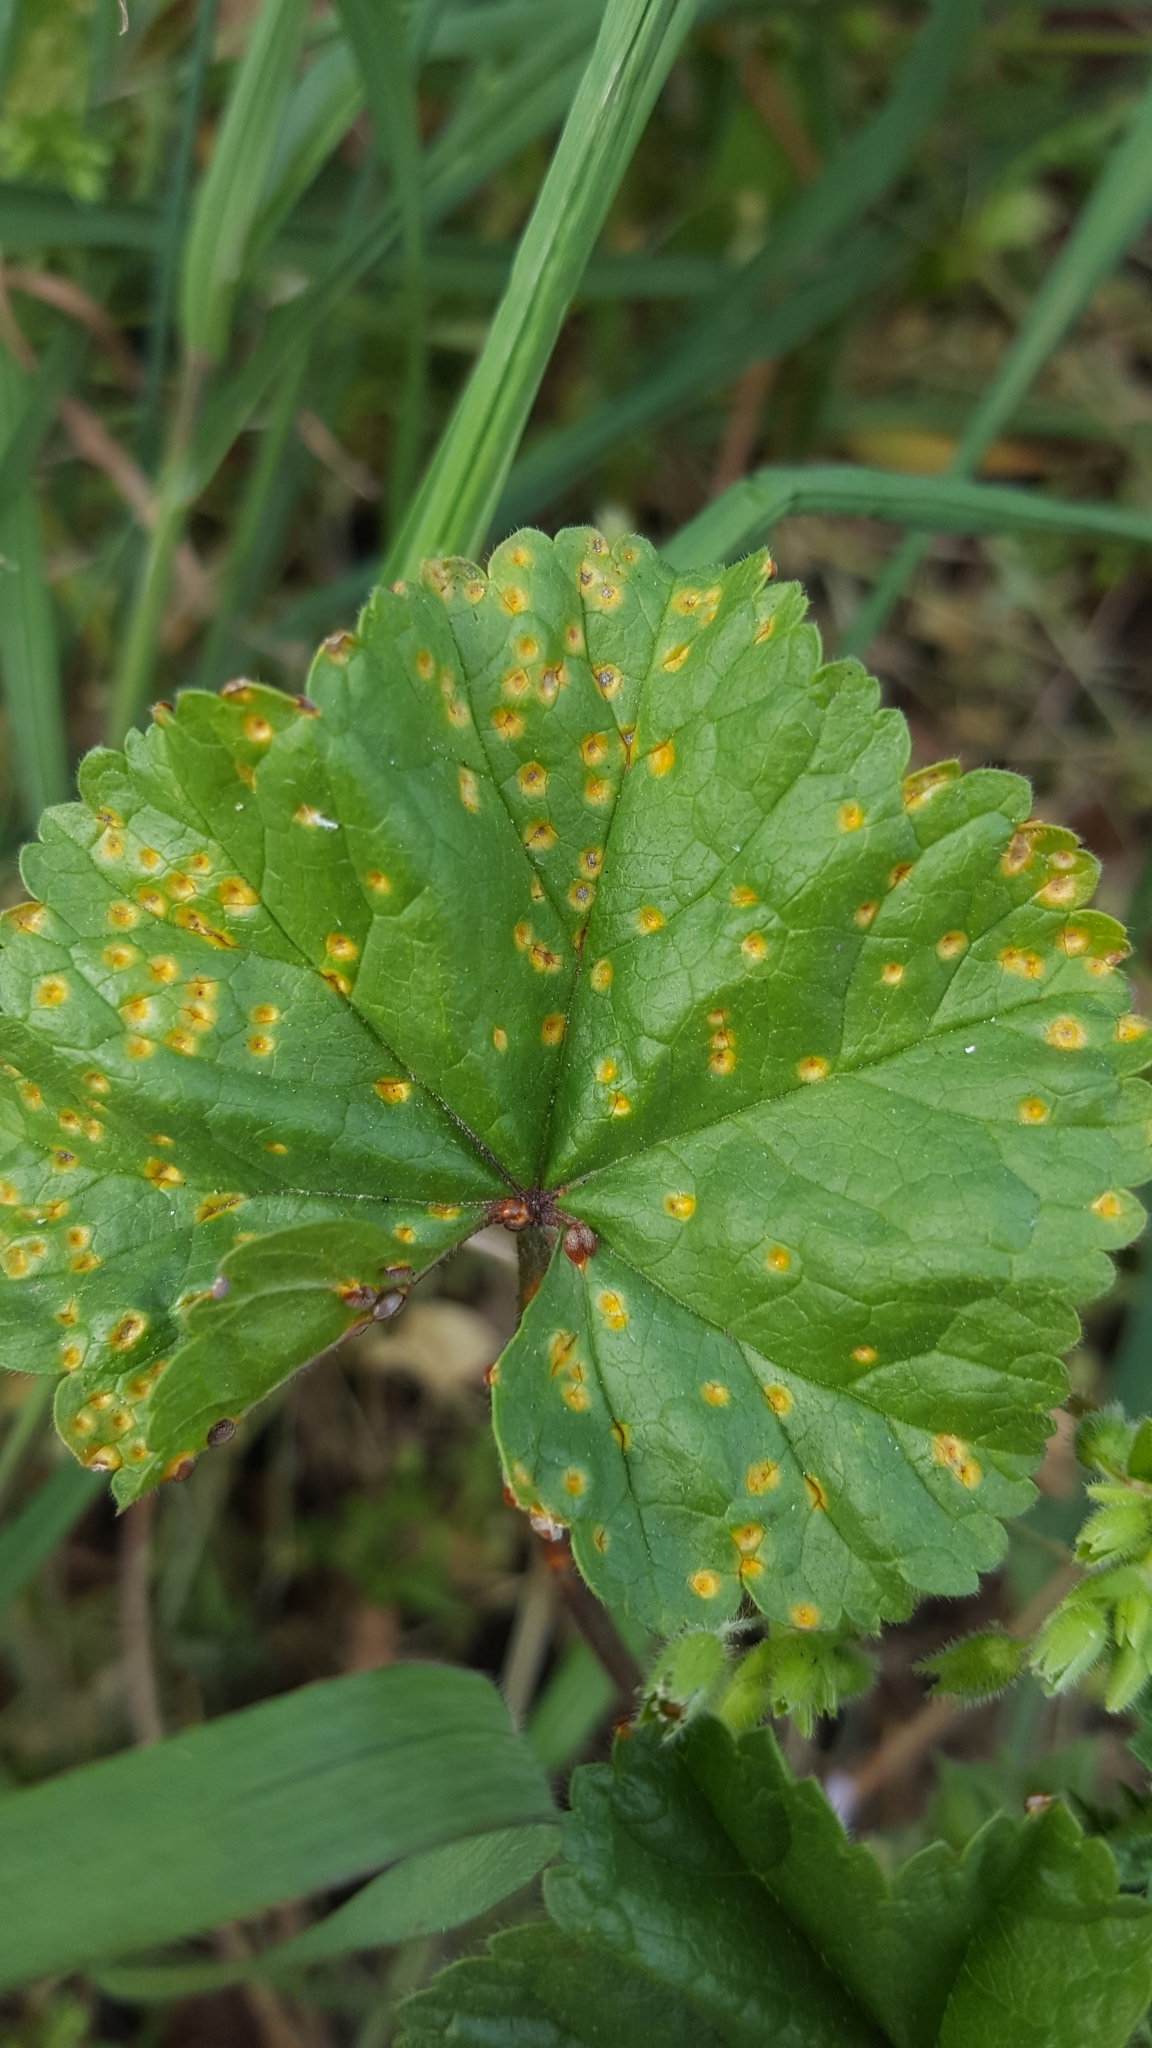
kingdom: Fungi
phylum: Basidiomycota
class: Pucciniomycetes
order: Pucciniales
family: Pucciniaceae
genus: Puccinia
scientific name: Puccinia malvacearum
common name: Hollyhock rust
